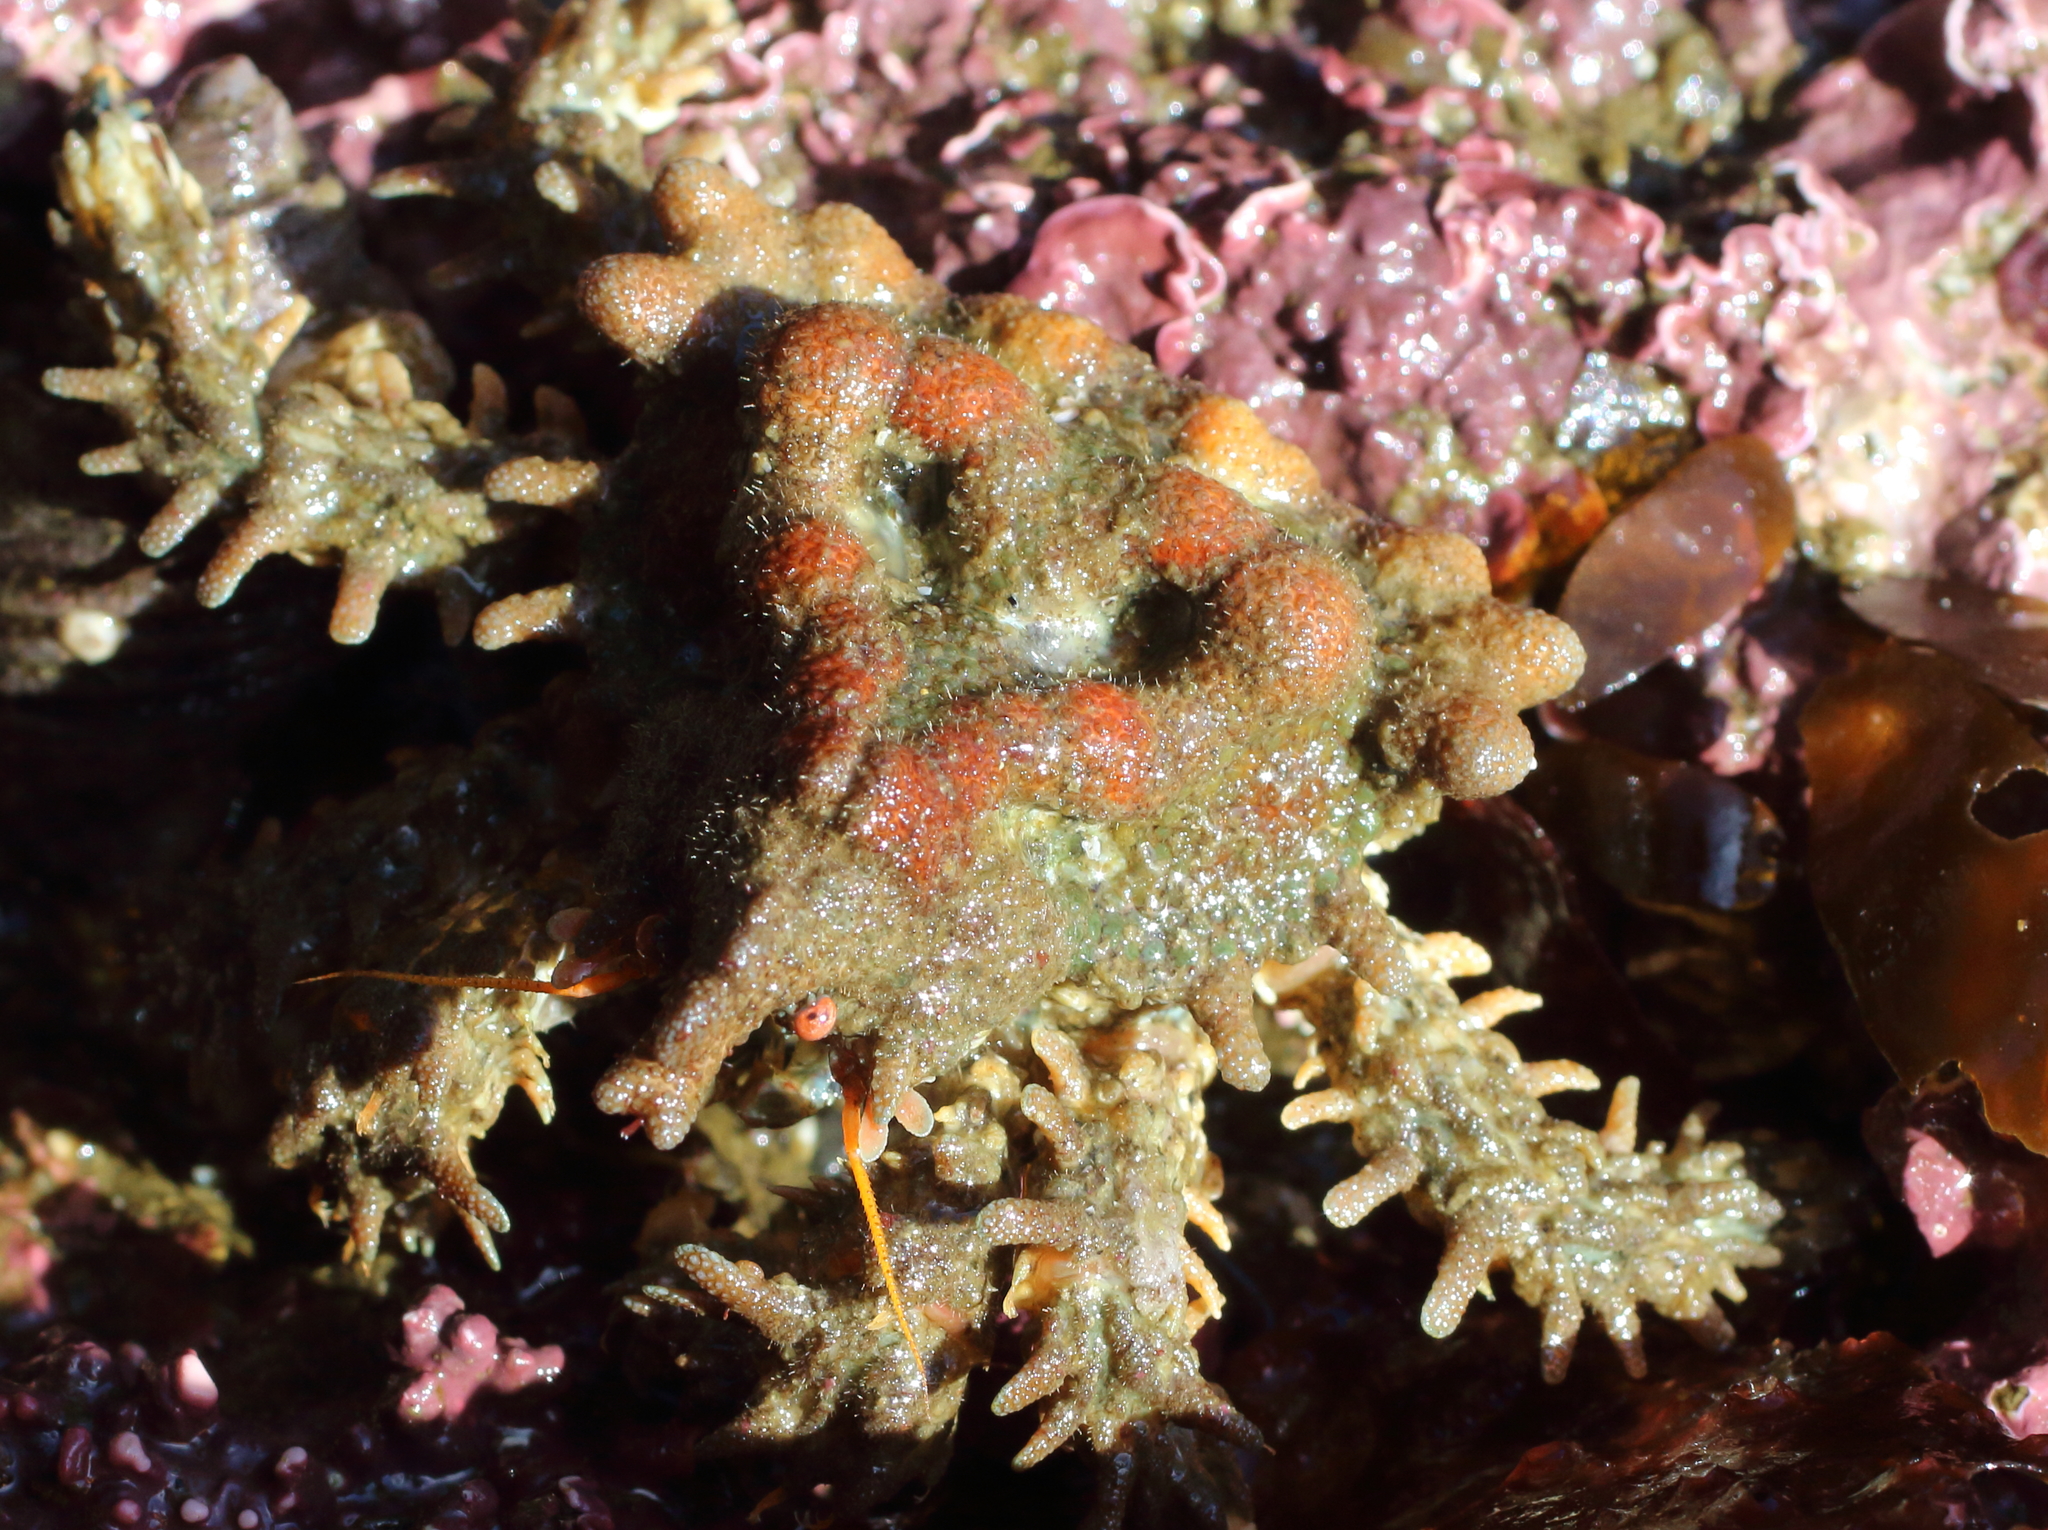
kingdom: Animalia
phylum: Arthropoda
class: Malacostraca
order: Decapoda
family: Lithodidae
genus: Phyllolithodes
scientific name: Phyllolithodes papillosus
